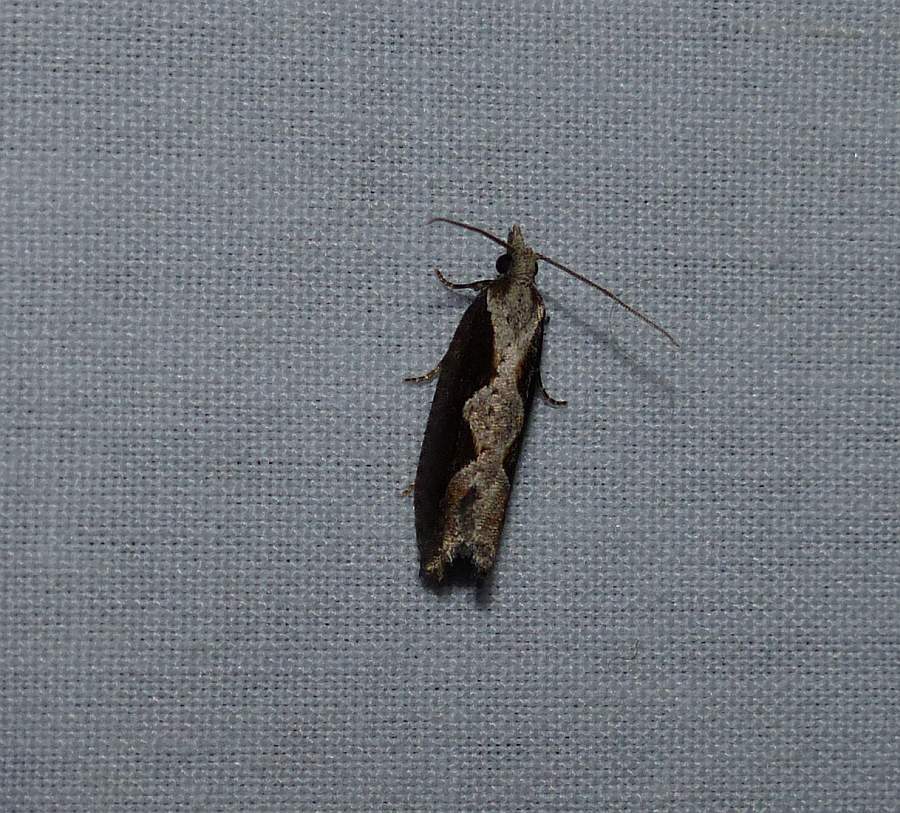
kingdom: Animalia
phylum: Arthropoda
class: Insecta
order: Lepidoptera
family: Tortricidae
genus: Epinotia
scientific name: Epinotia lindana
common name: Diamondback epinotia moth
